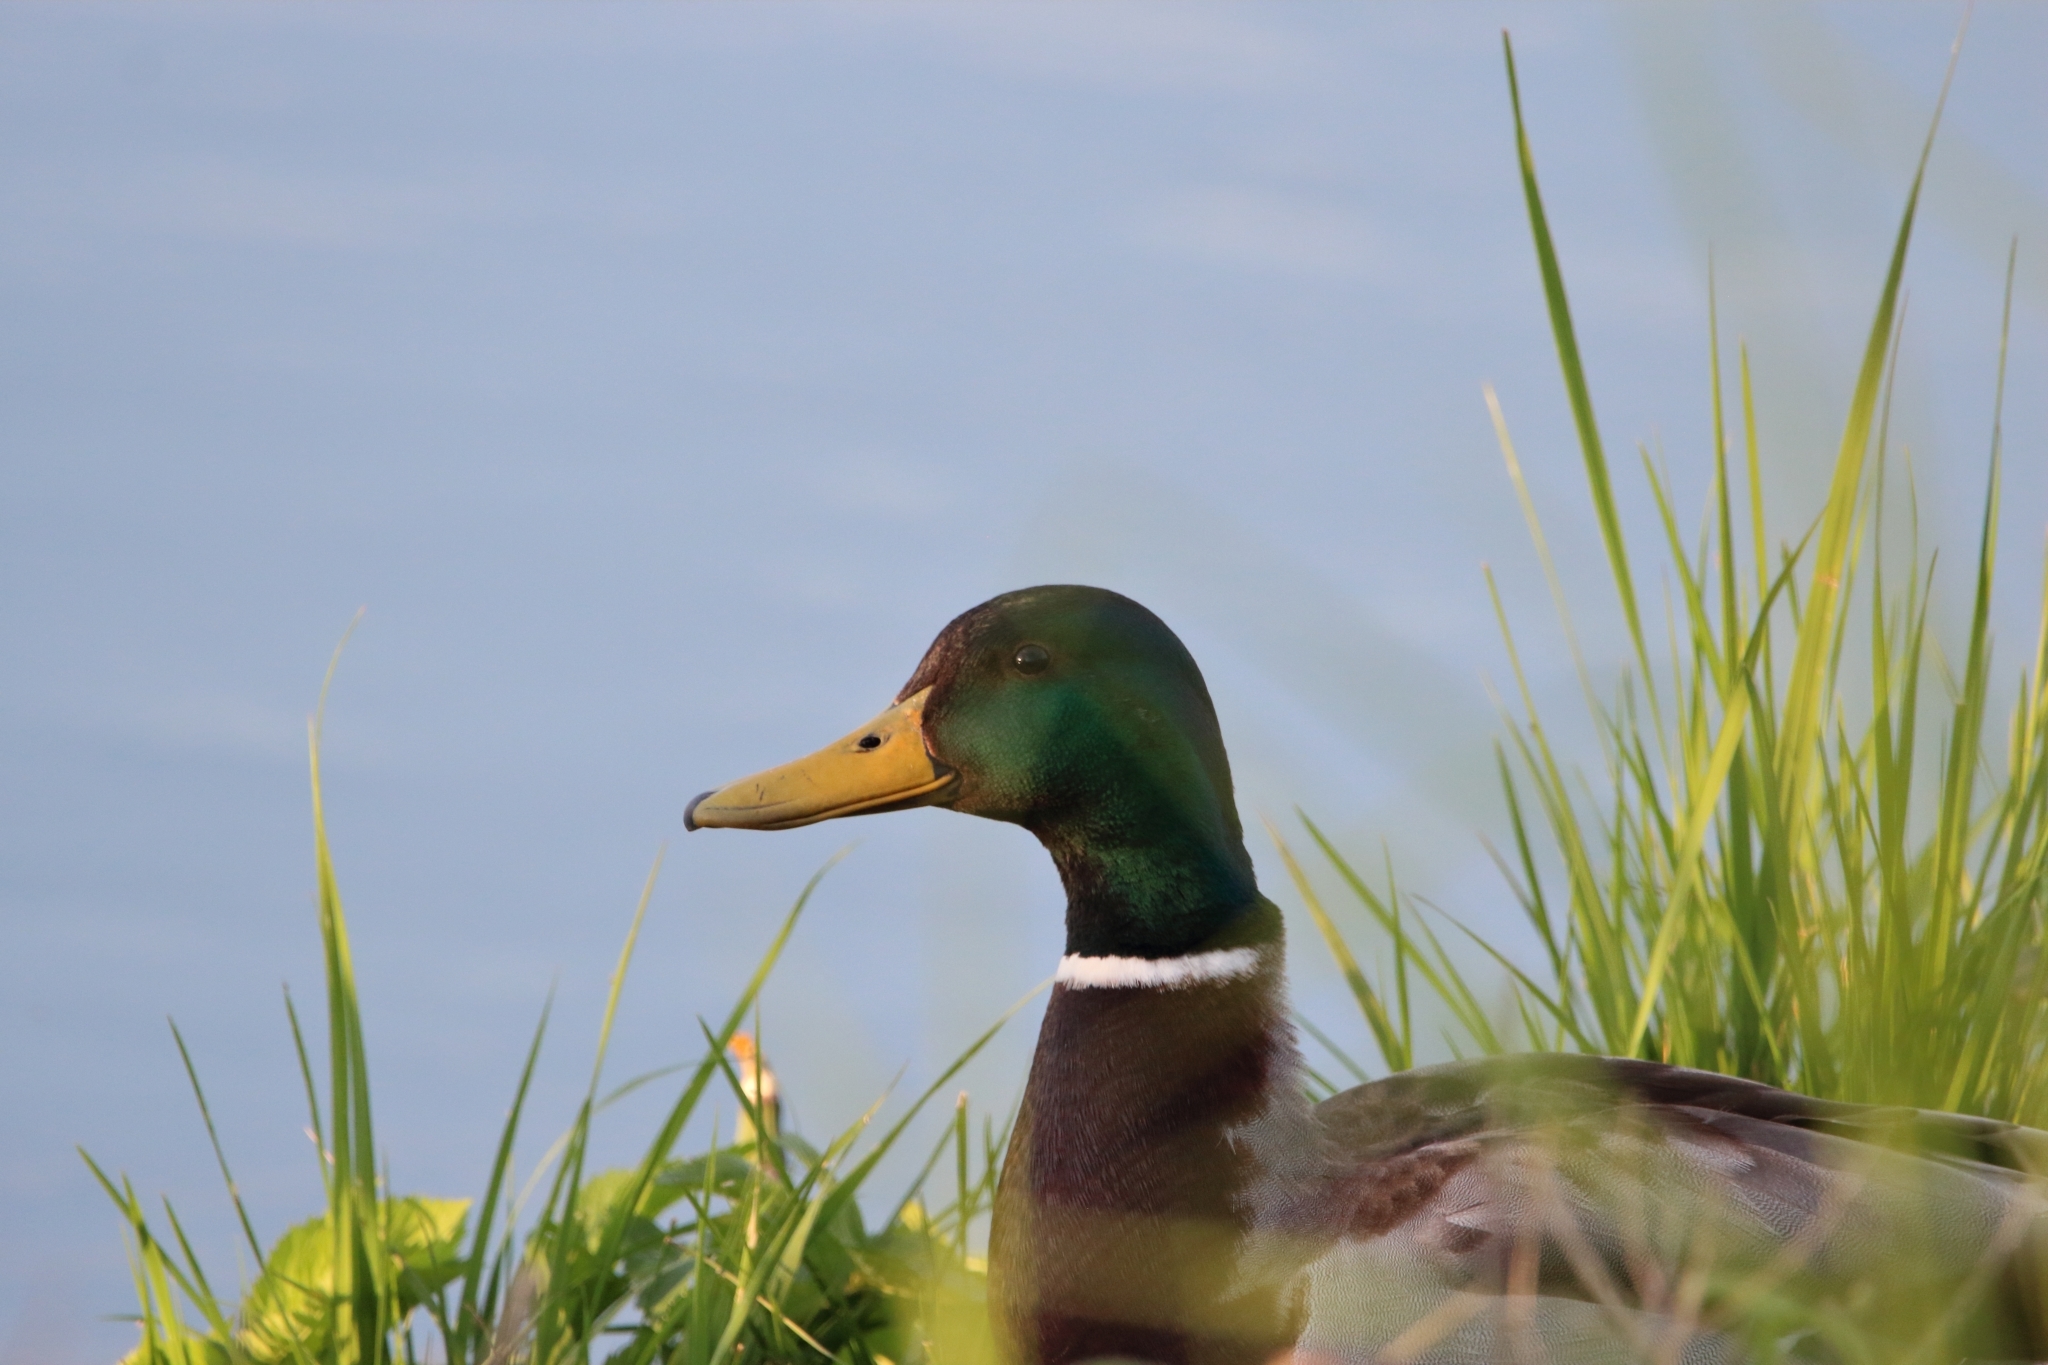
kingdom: Animalia
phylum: Chordata
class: Aves
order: Anseriformes
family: Anatidae
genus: Anas
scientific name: Anas platyrhynchos
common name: Mallard
